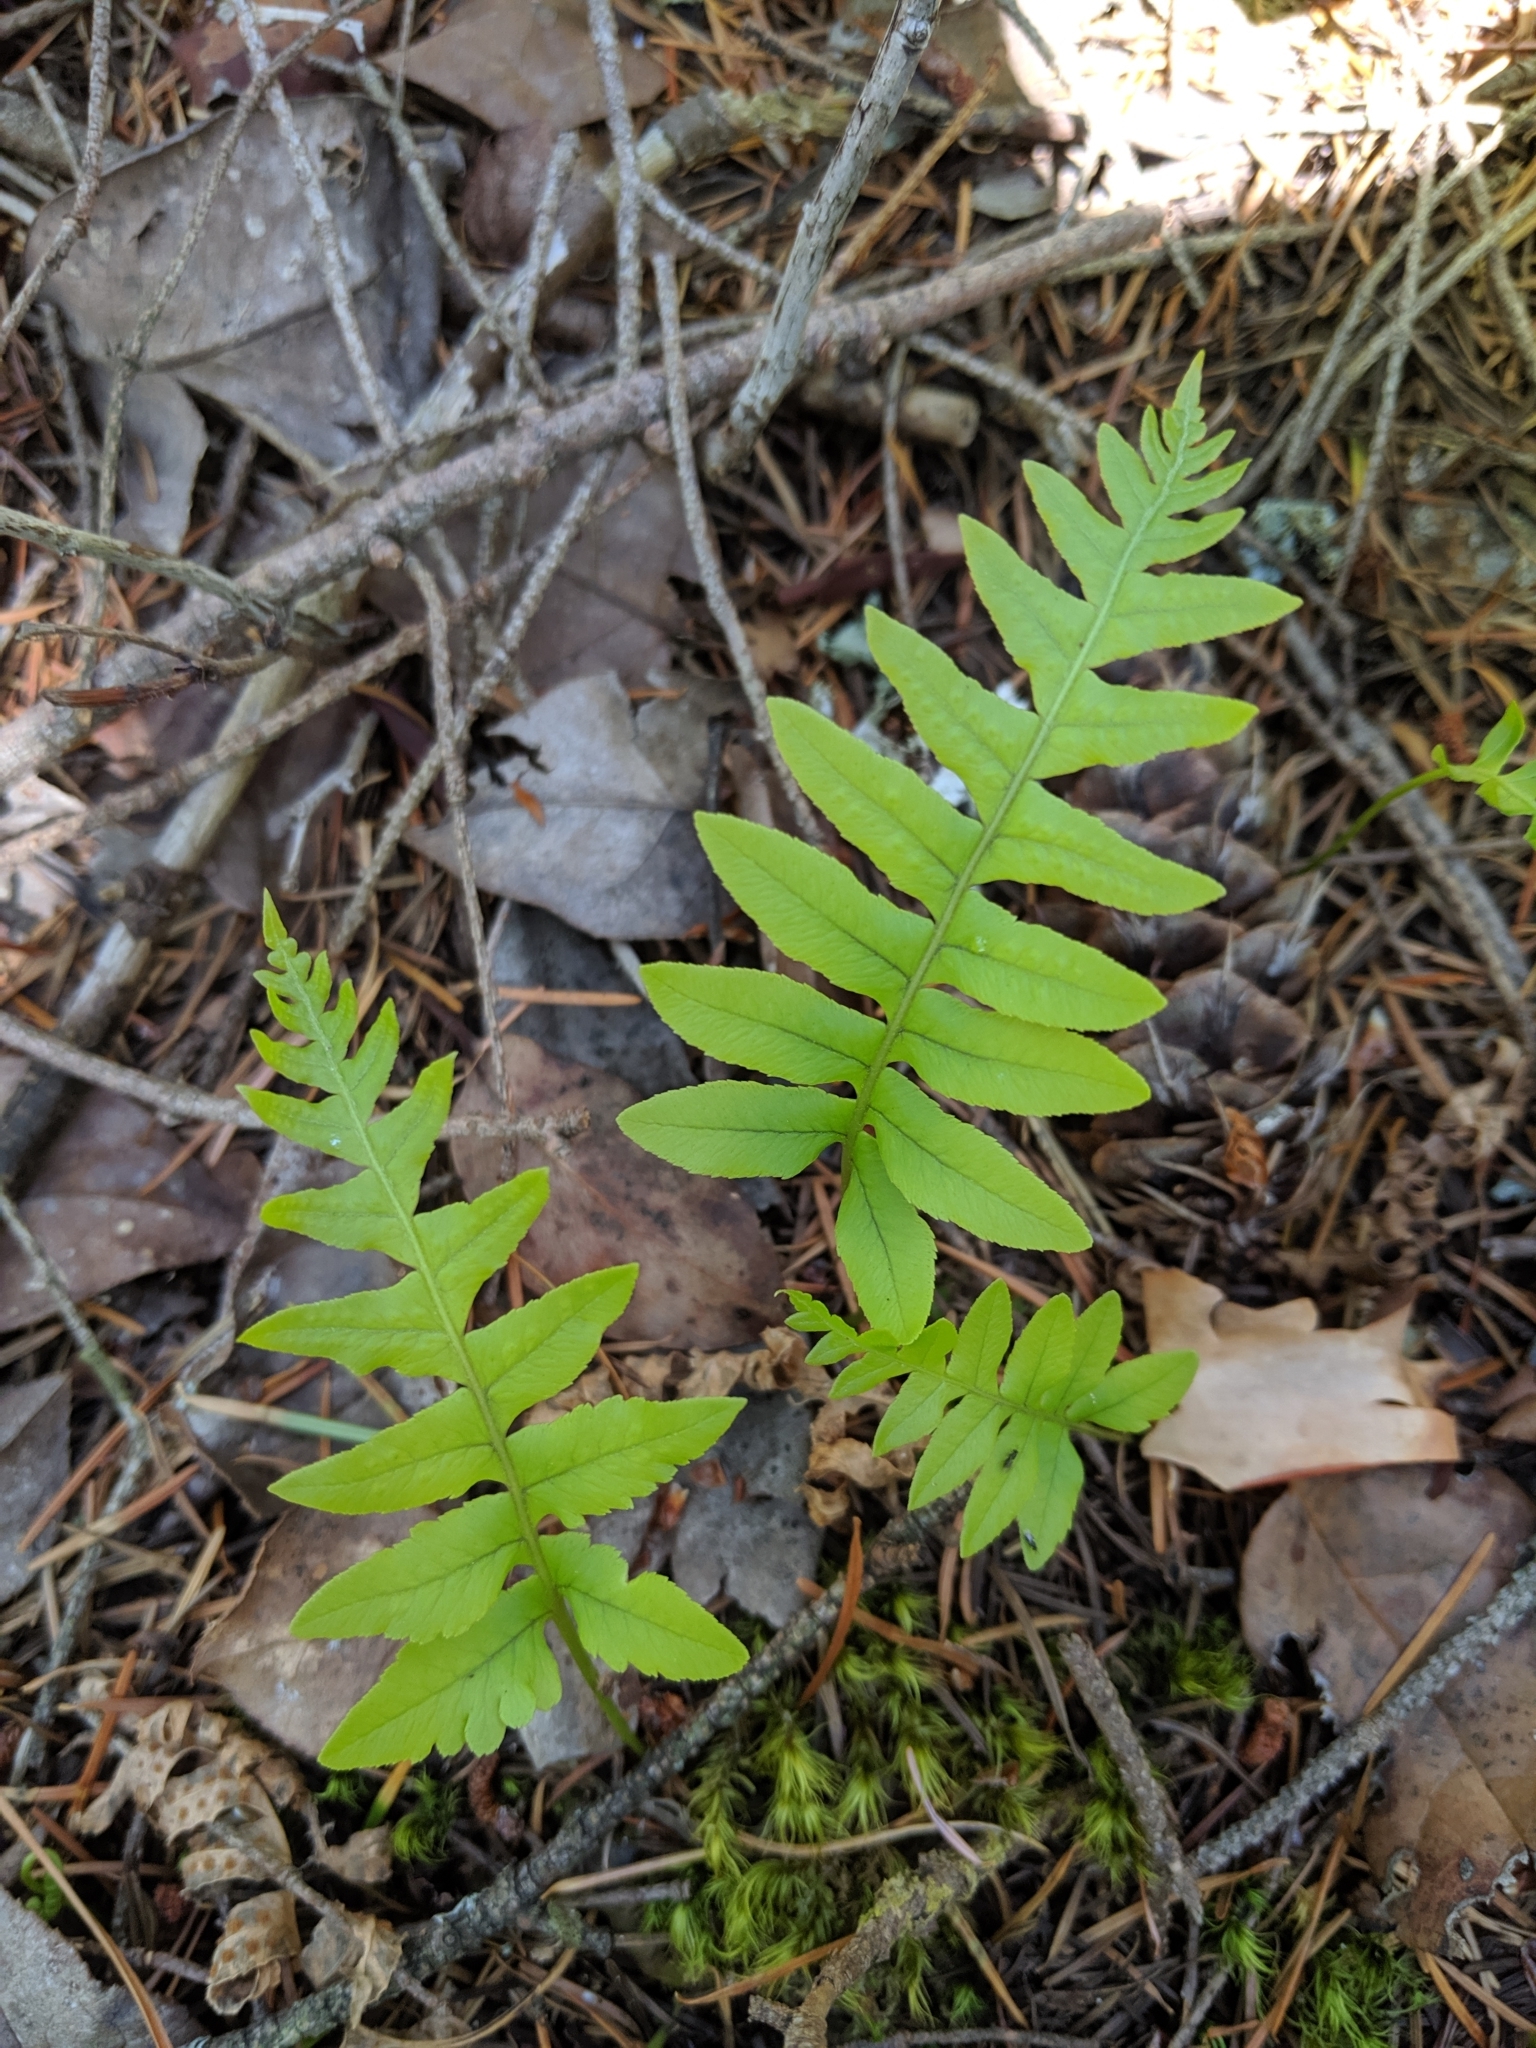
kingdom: Plantae
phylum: Tracheophyta
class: Polypodiopsida
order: Polypodiales
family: Polypodiaceae
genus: Polypodium
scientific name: Polypodium glycyrrhiza
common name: Licorice fern
